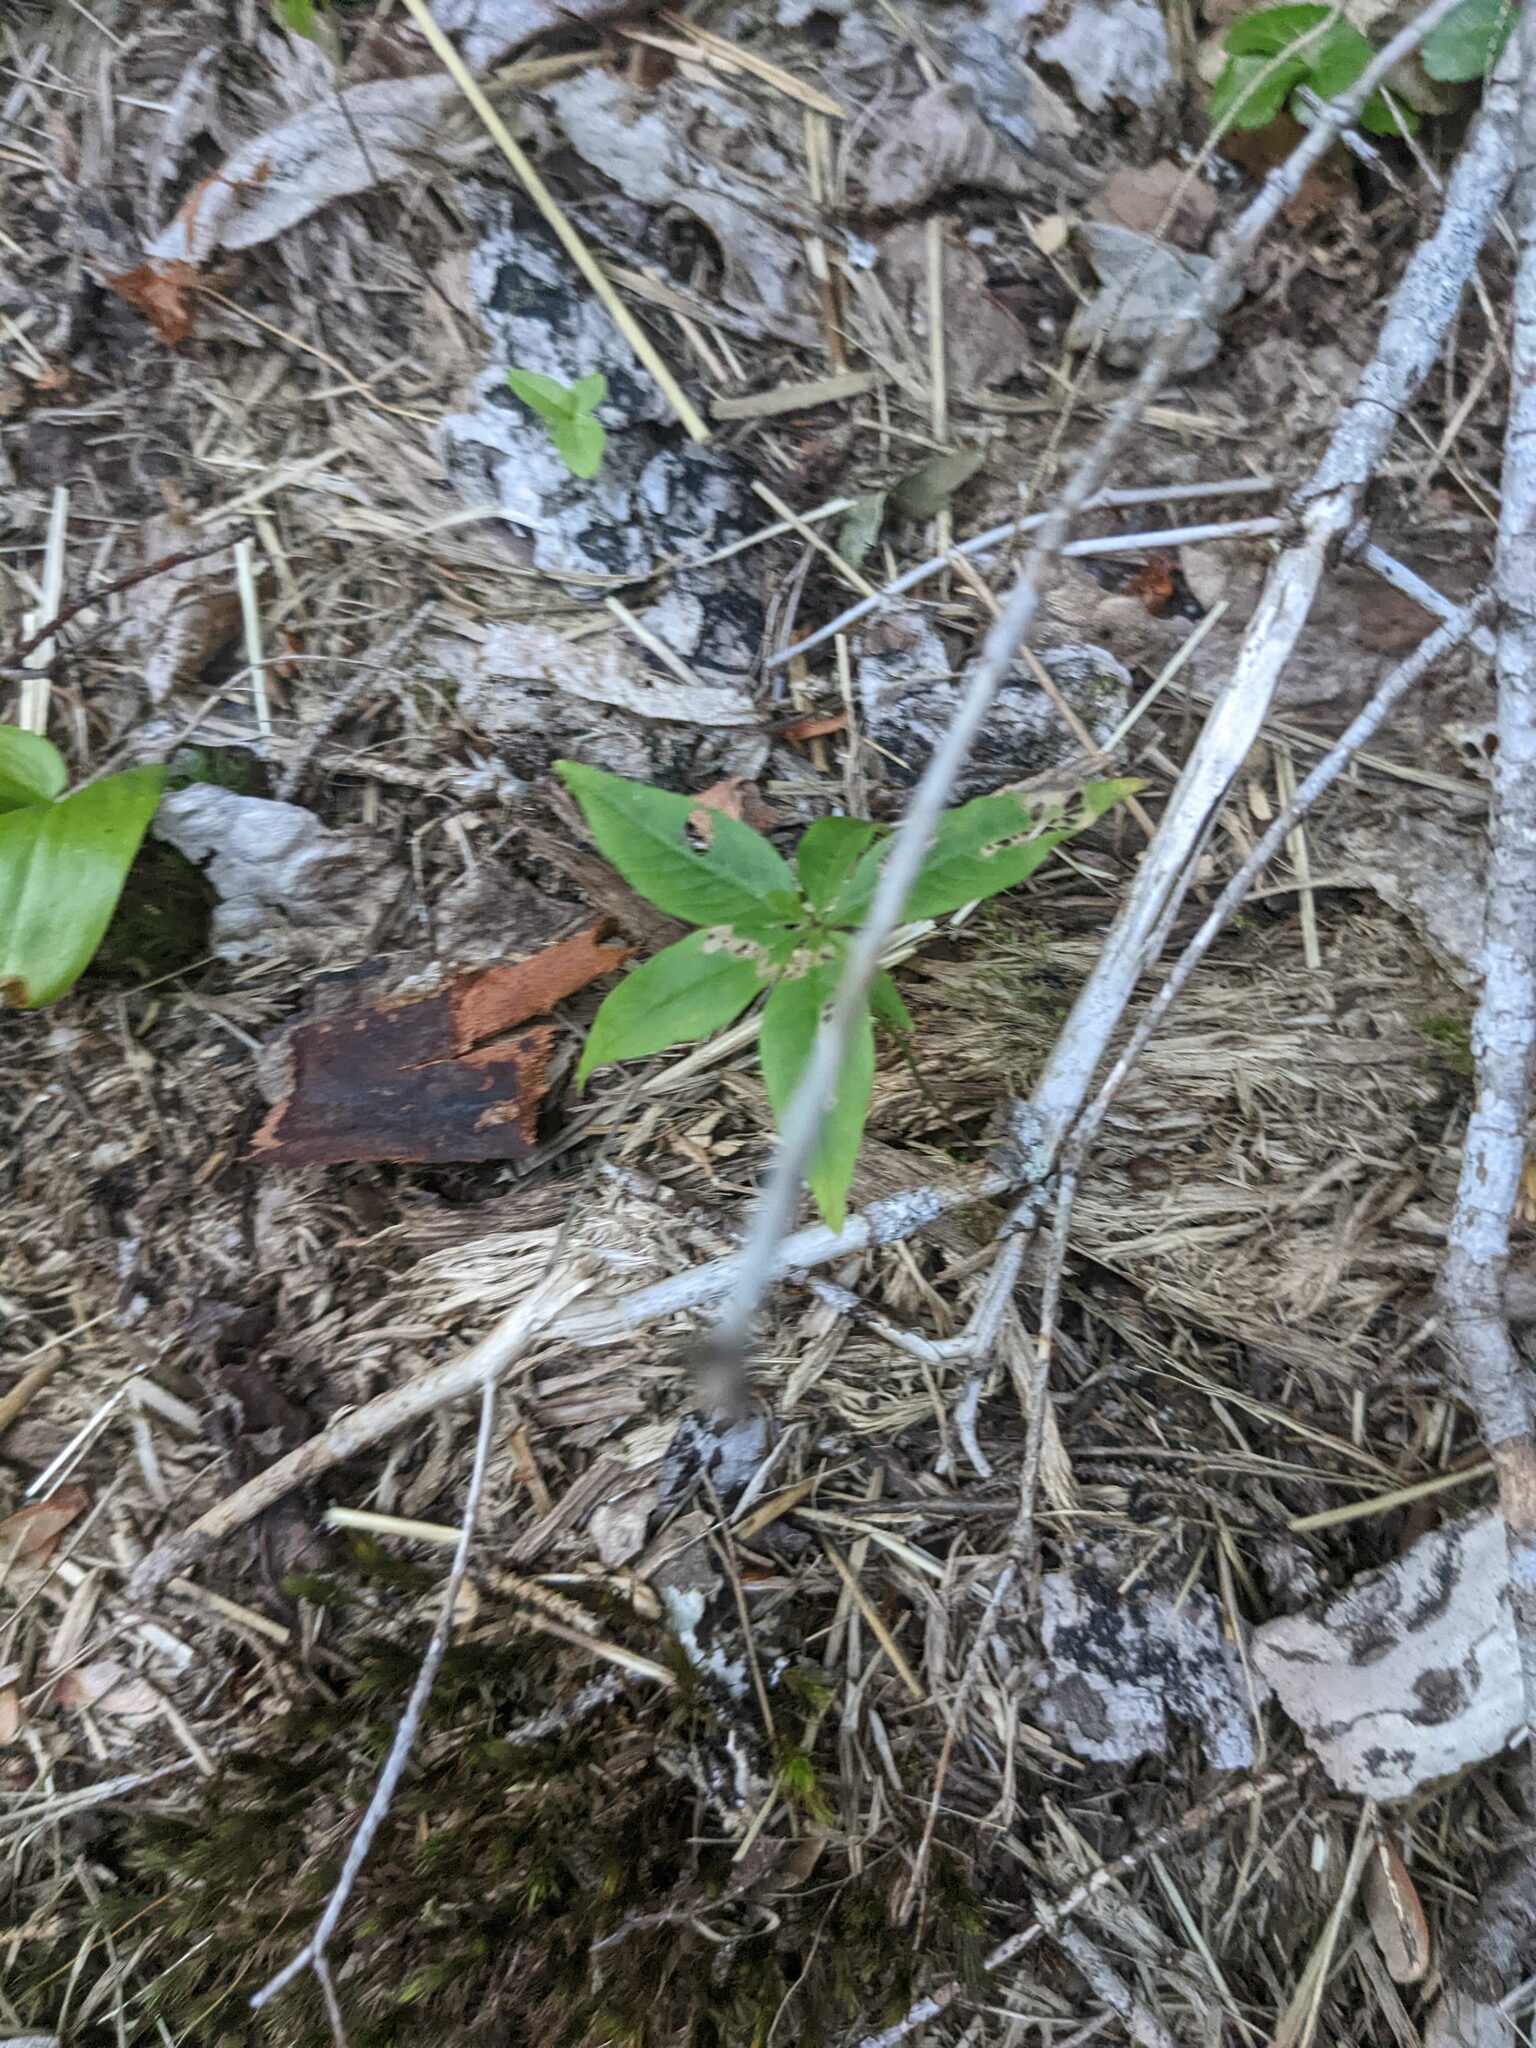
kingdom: Plantae
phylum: Tracheophyta
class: Magnoliopsida
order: Ericales
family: Primulaceae
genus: Lysimachia
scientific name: Lysimachia borealis
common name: American starflower
